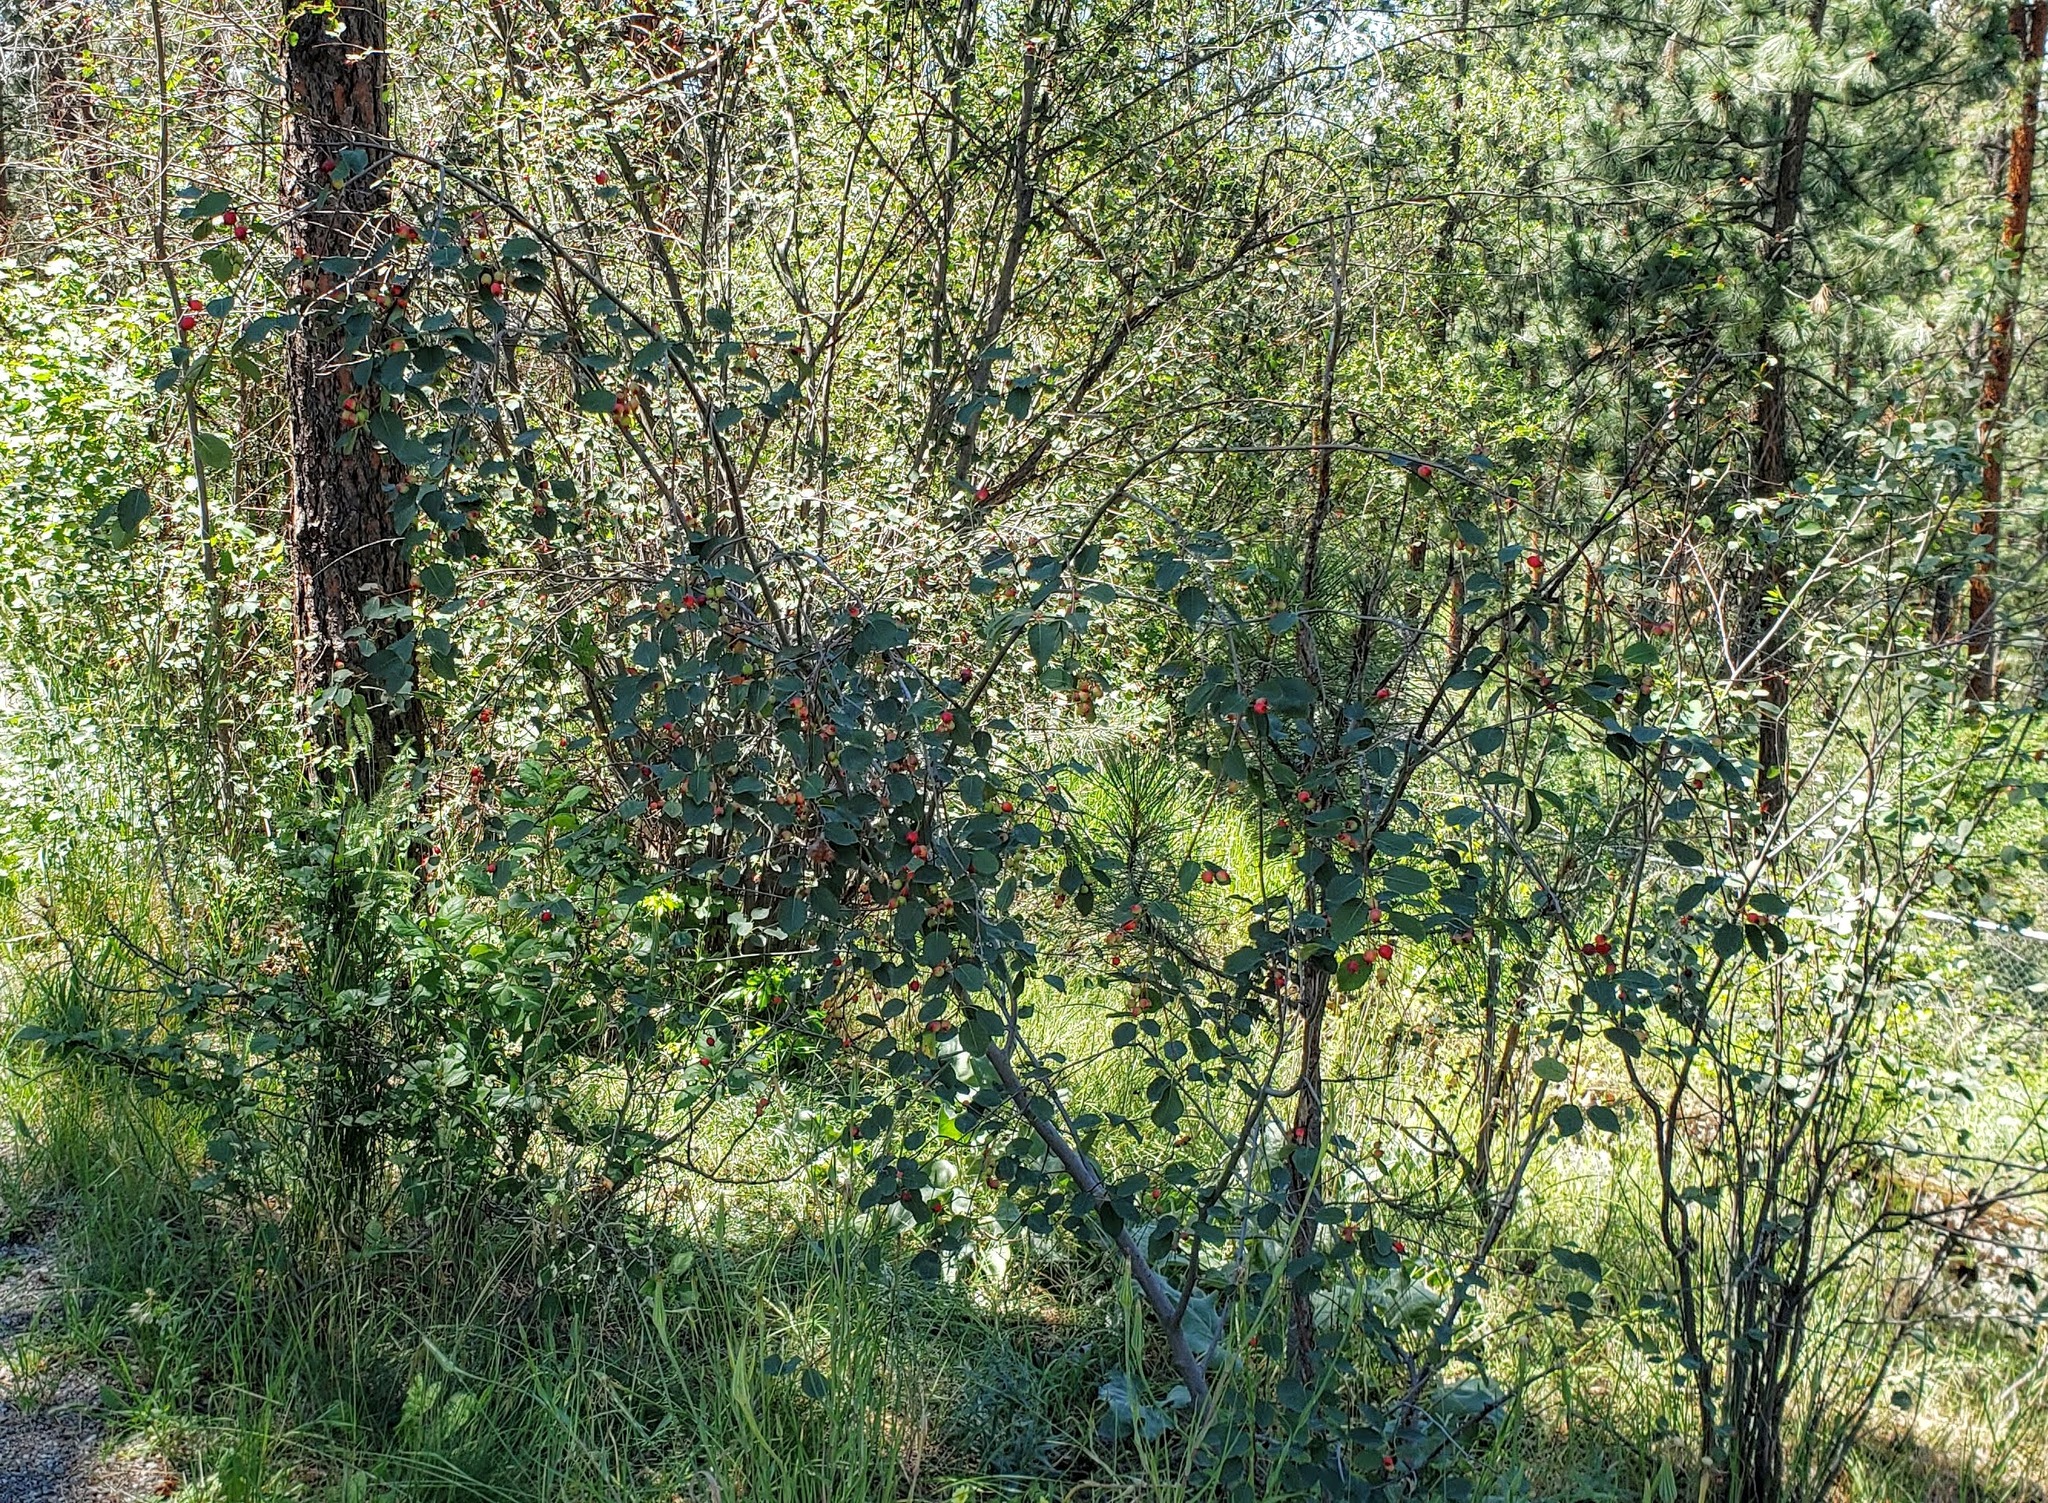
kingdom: Plantae
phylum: Tracheophyta
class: Magnoliopsida
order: Rosales
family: Rosaceae
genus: Amelanchier
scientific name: Amelanchier alnifolia
